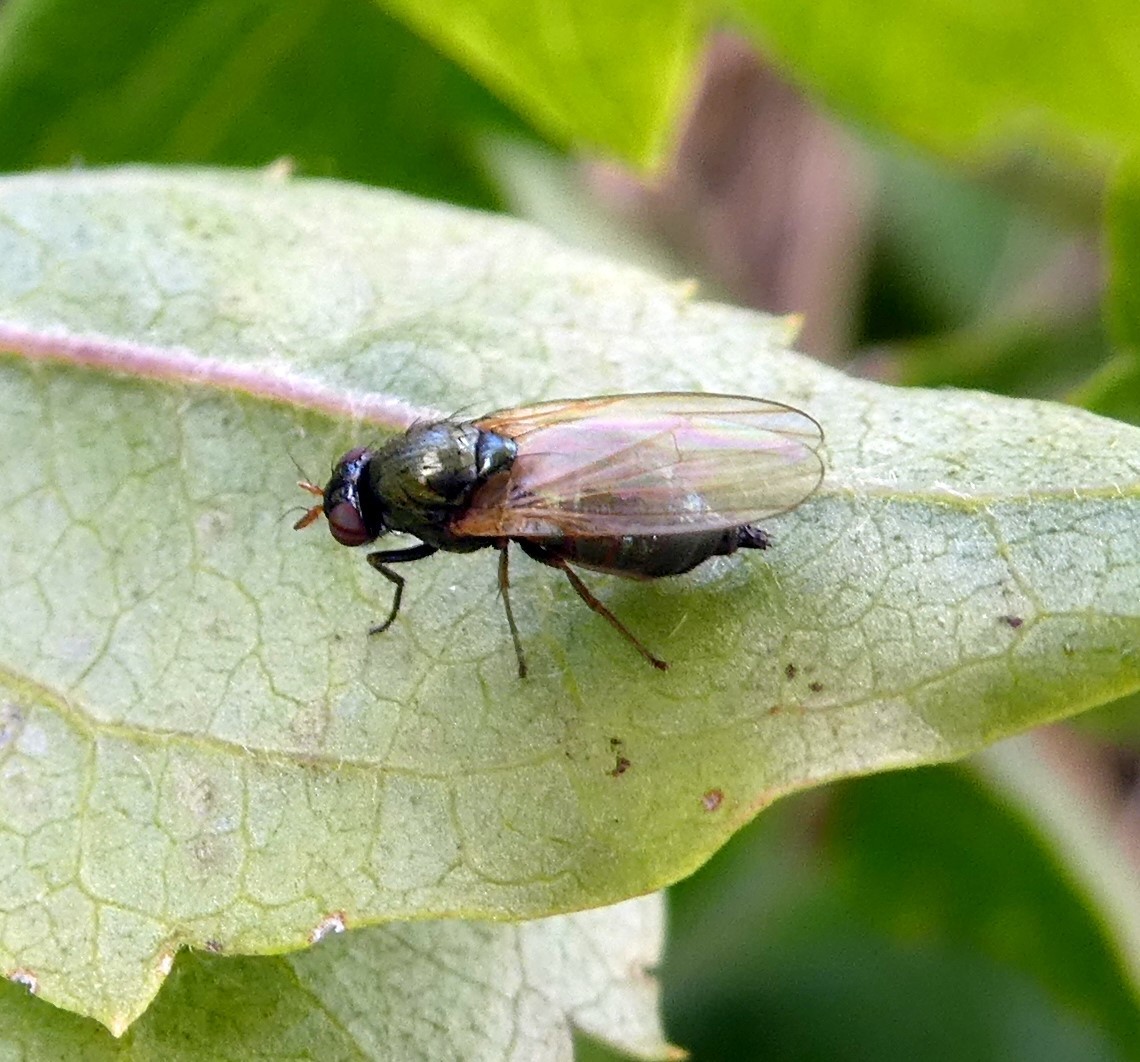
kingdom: Animalia
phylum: Arthropoda
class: Insecta
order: Diptera
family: Lauxaniidae
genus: Calliopum
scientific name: Calliopum
